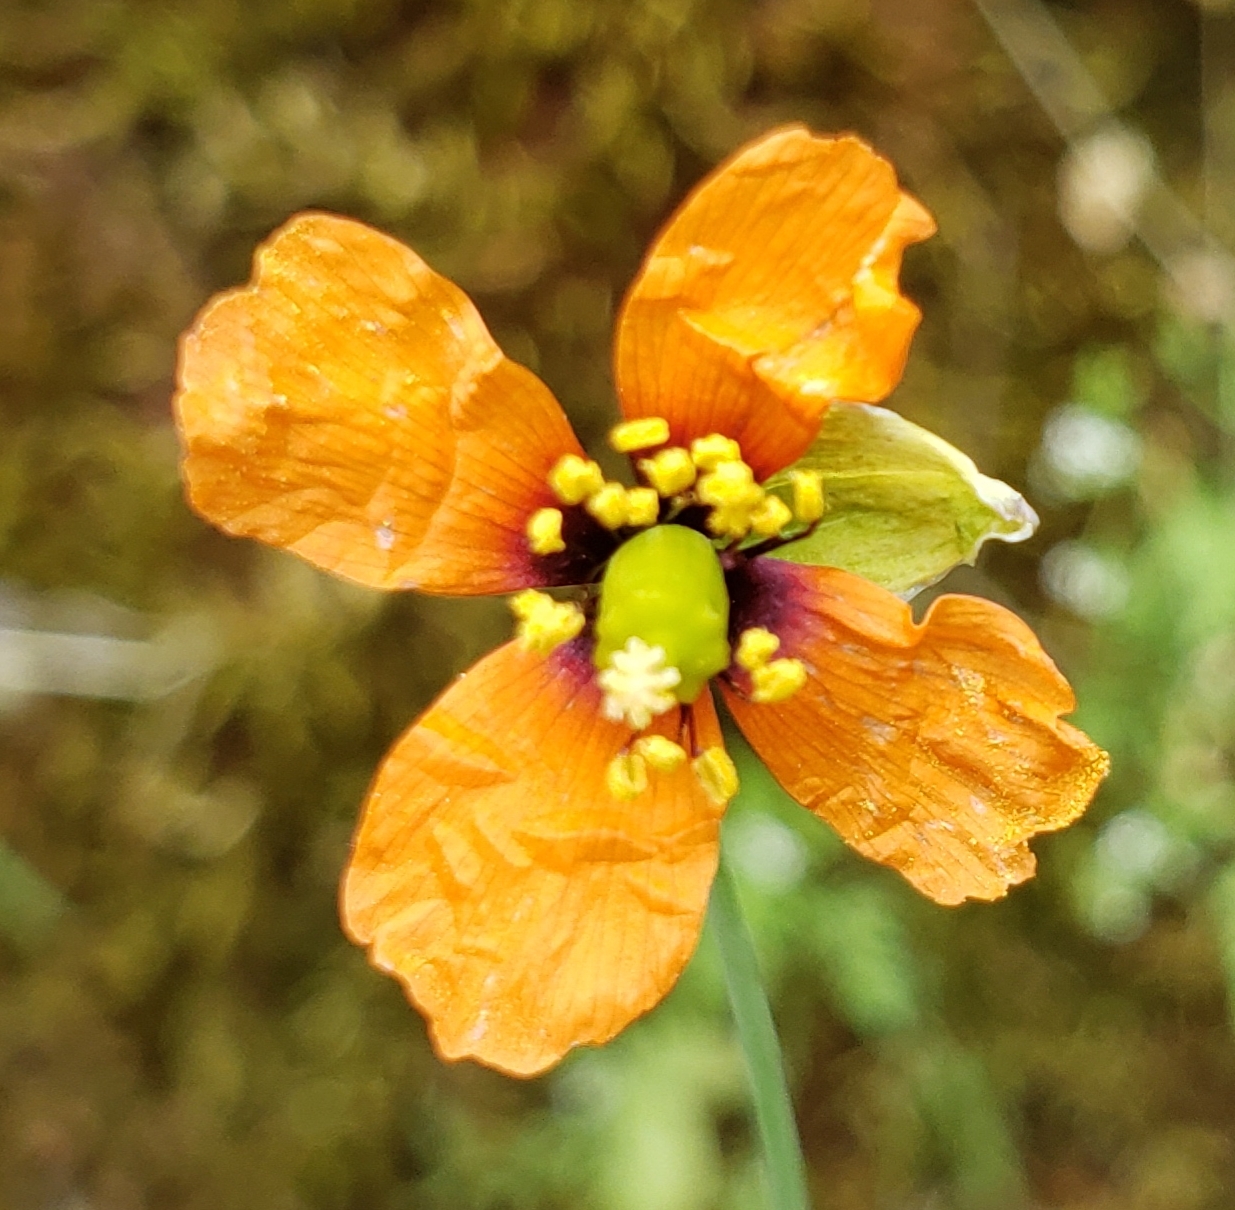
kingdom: Plantae
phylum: Tracheophyta
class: Magnoliopsida
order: Ranunculales
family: Papaveraceae
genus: Stylomecon
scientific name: Stylomecon heterophylla
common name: Flaming-poppy
